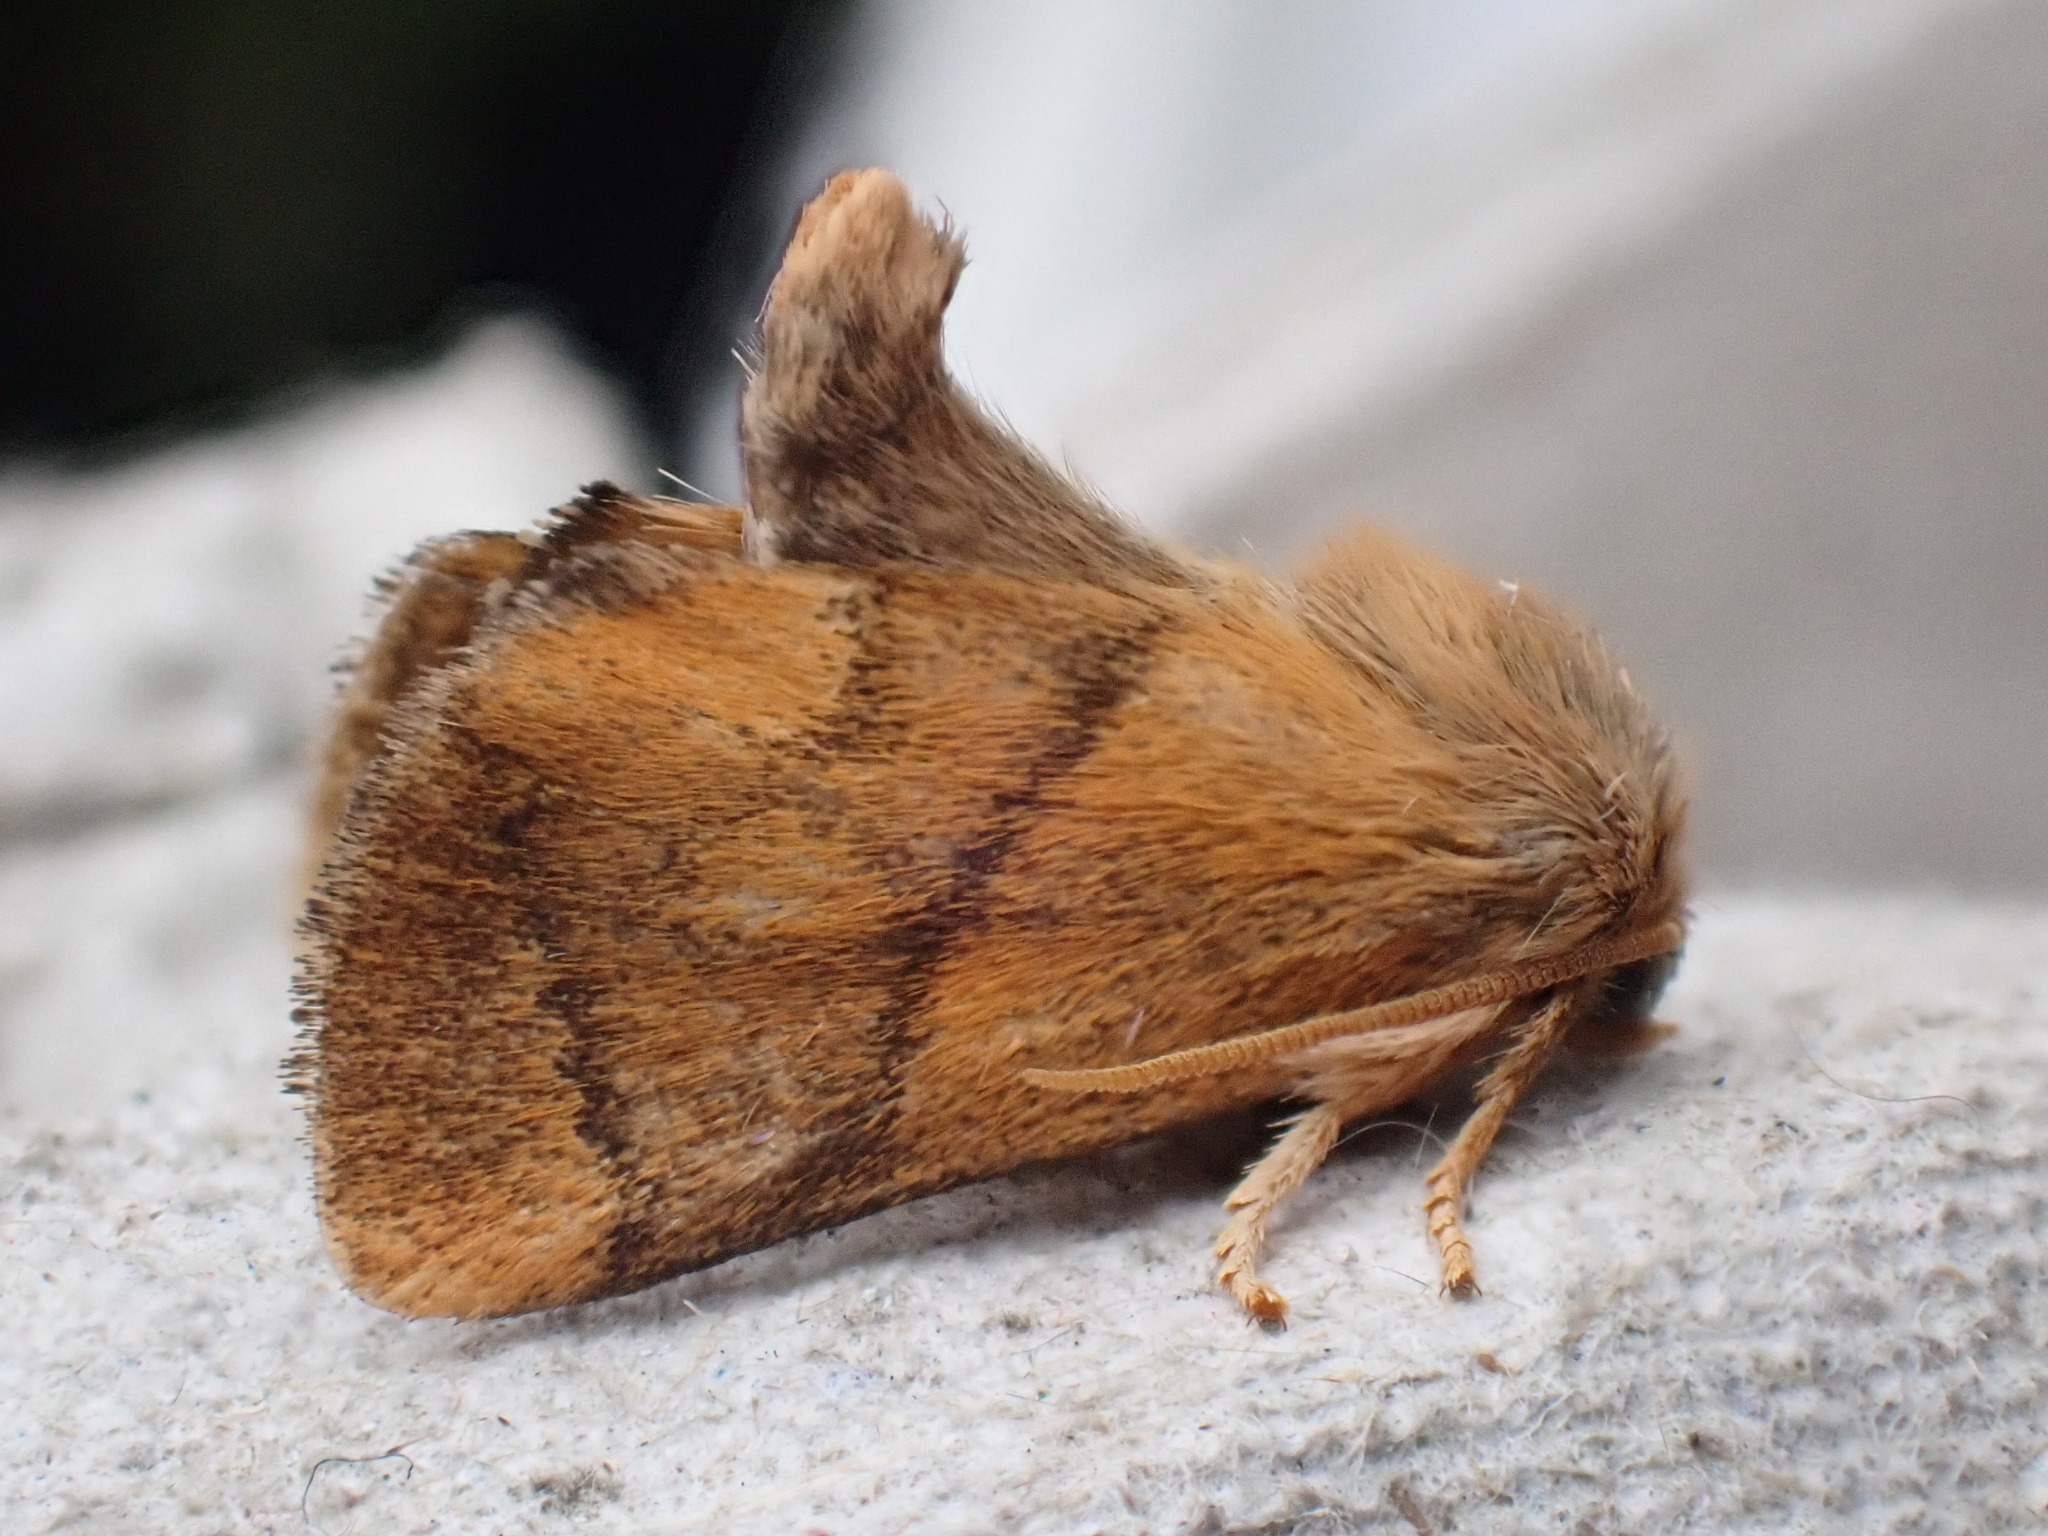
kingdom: Animalia
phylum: Arthropoda
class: Insecta
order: Lepidoptera
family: Limacodidae
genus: Apoda
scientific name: Apoda limacodes
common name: Festoon
